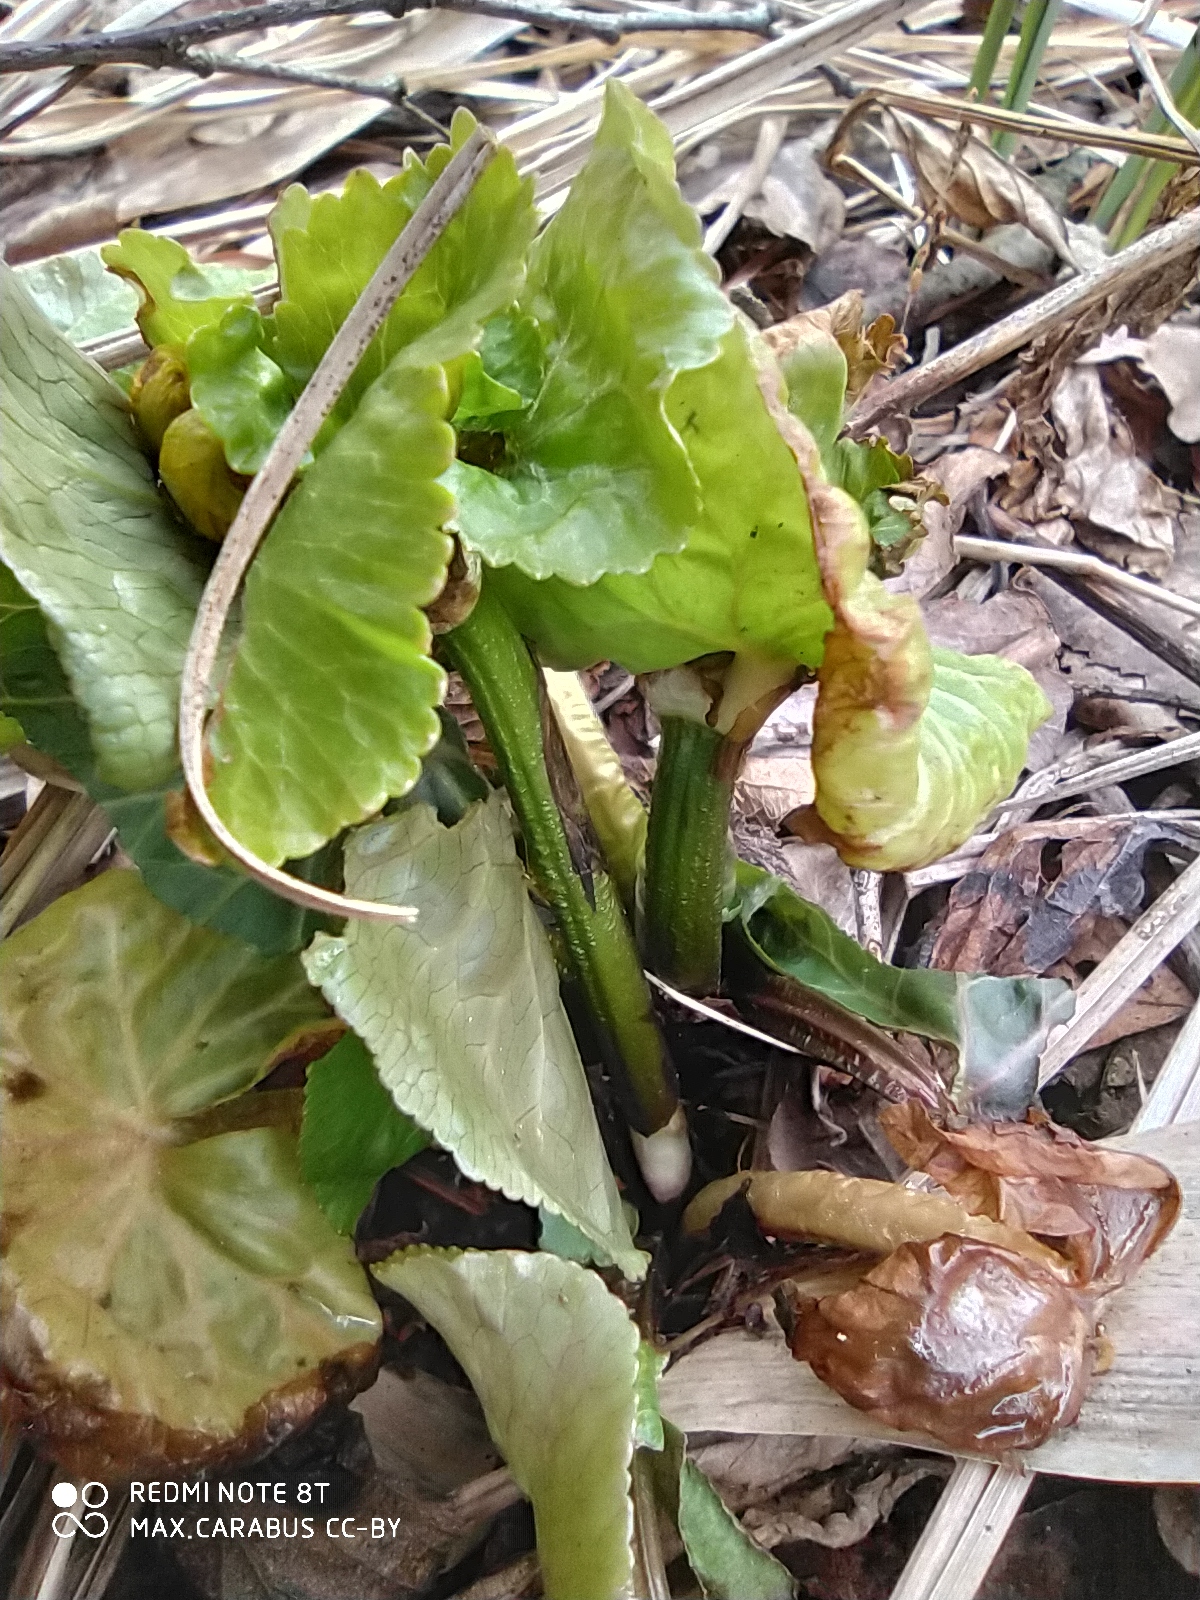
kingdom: Plantae
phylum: Tracheophyta
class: Magnoliopsida
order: Ranunculales
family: Ranunculaceae
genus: Caltha
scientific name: Caltha palustris
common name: Marsh marigold
